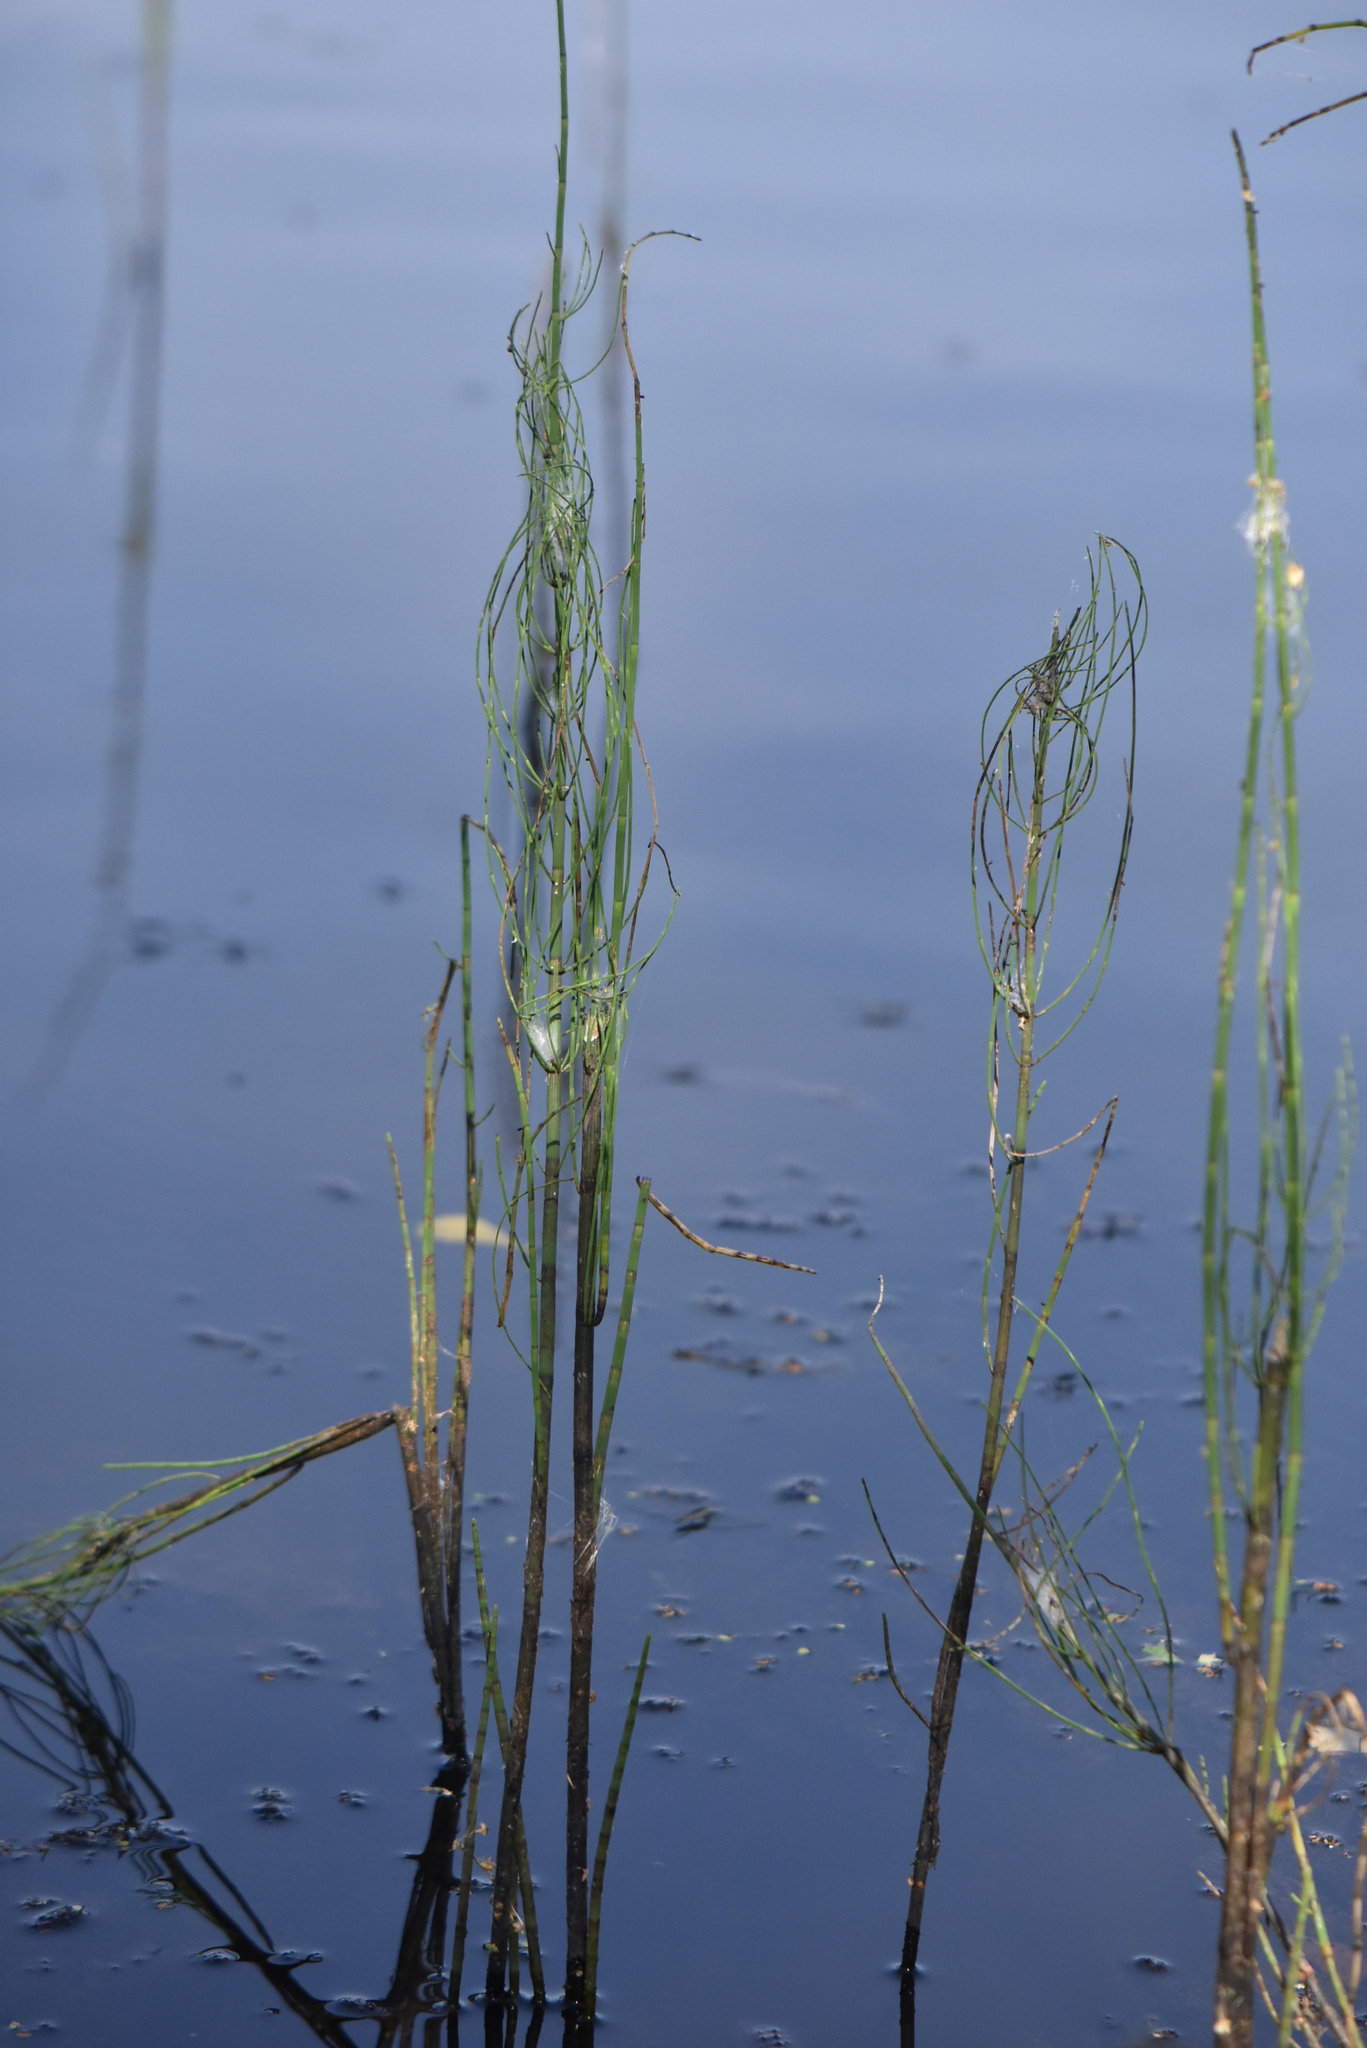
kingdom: Plantae
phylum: Tracheophyta
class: Polypodiopsida
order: Equisetales
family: Equisetaceae
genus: Equisetum
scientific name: Equisetum fluviatile
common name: Water horsetail
